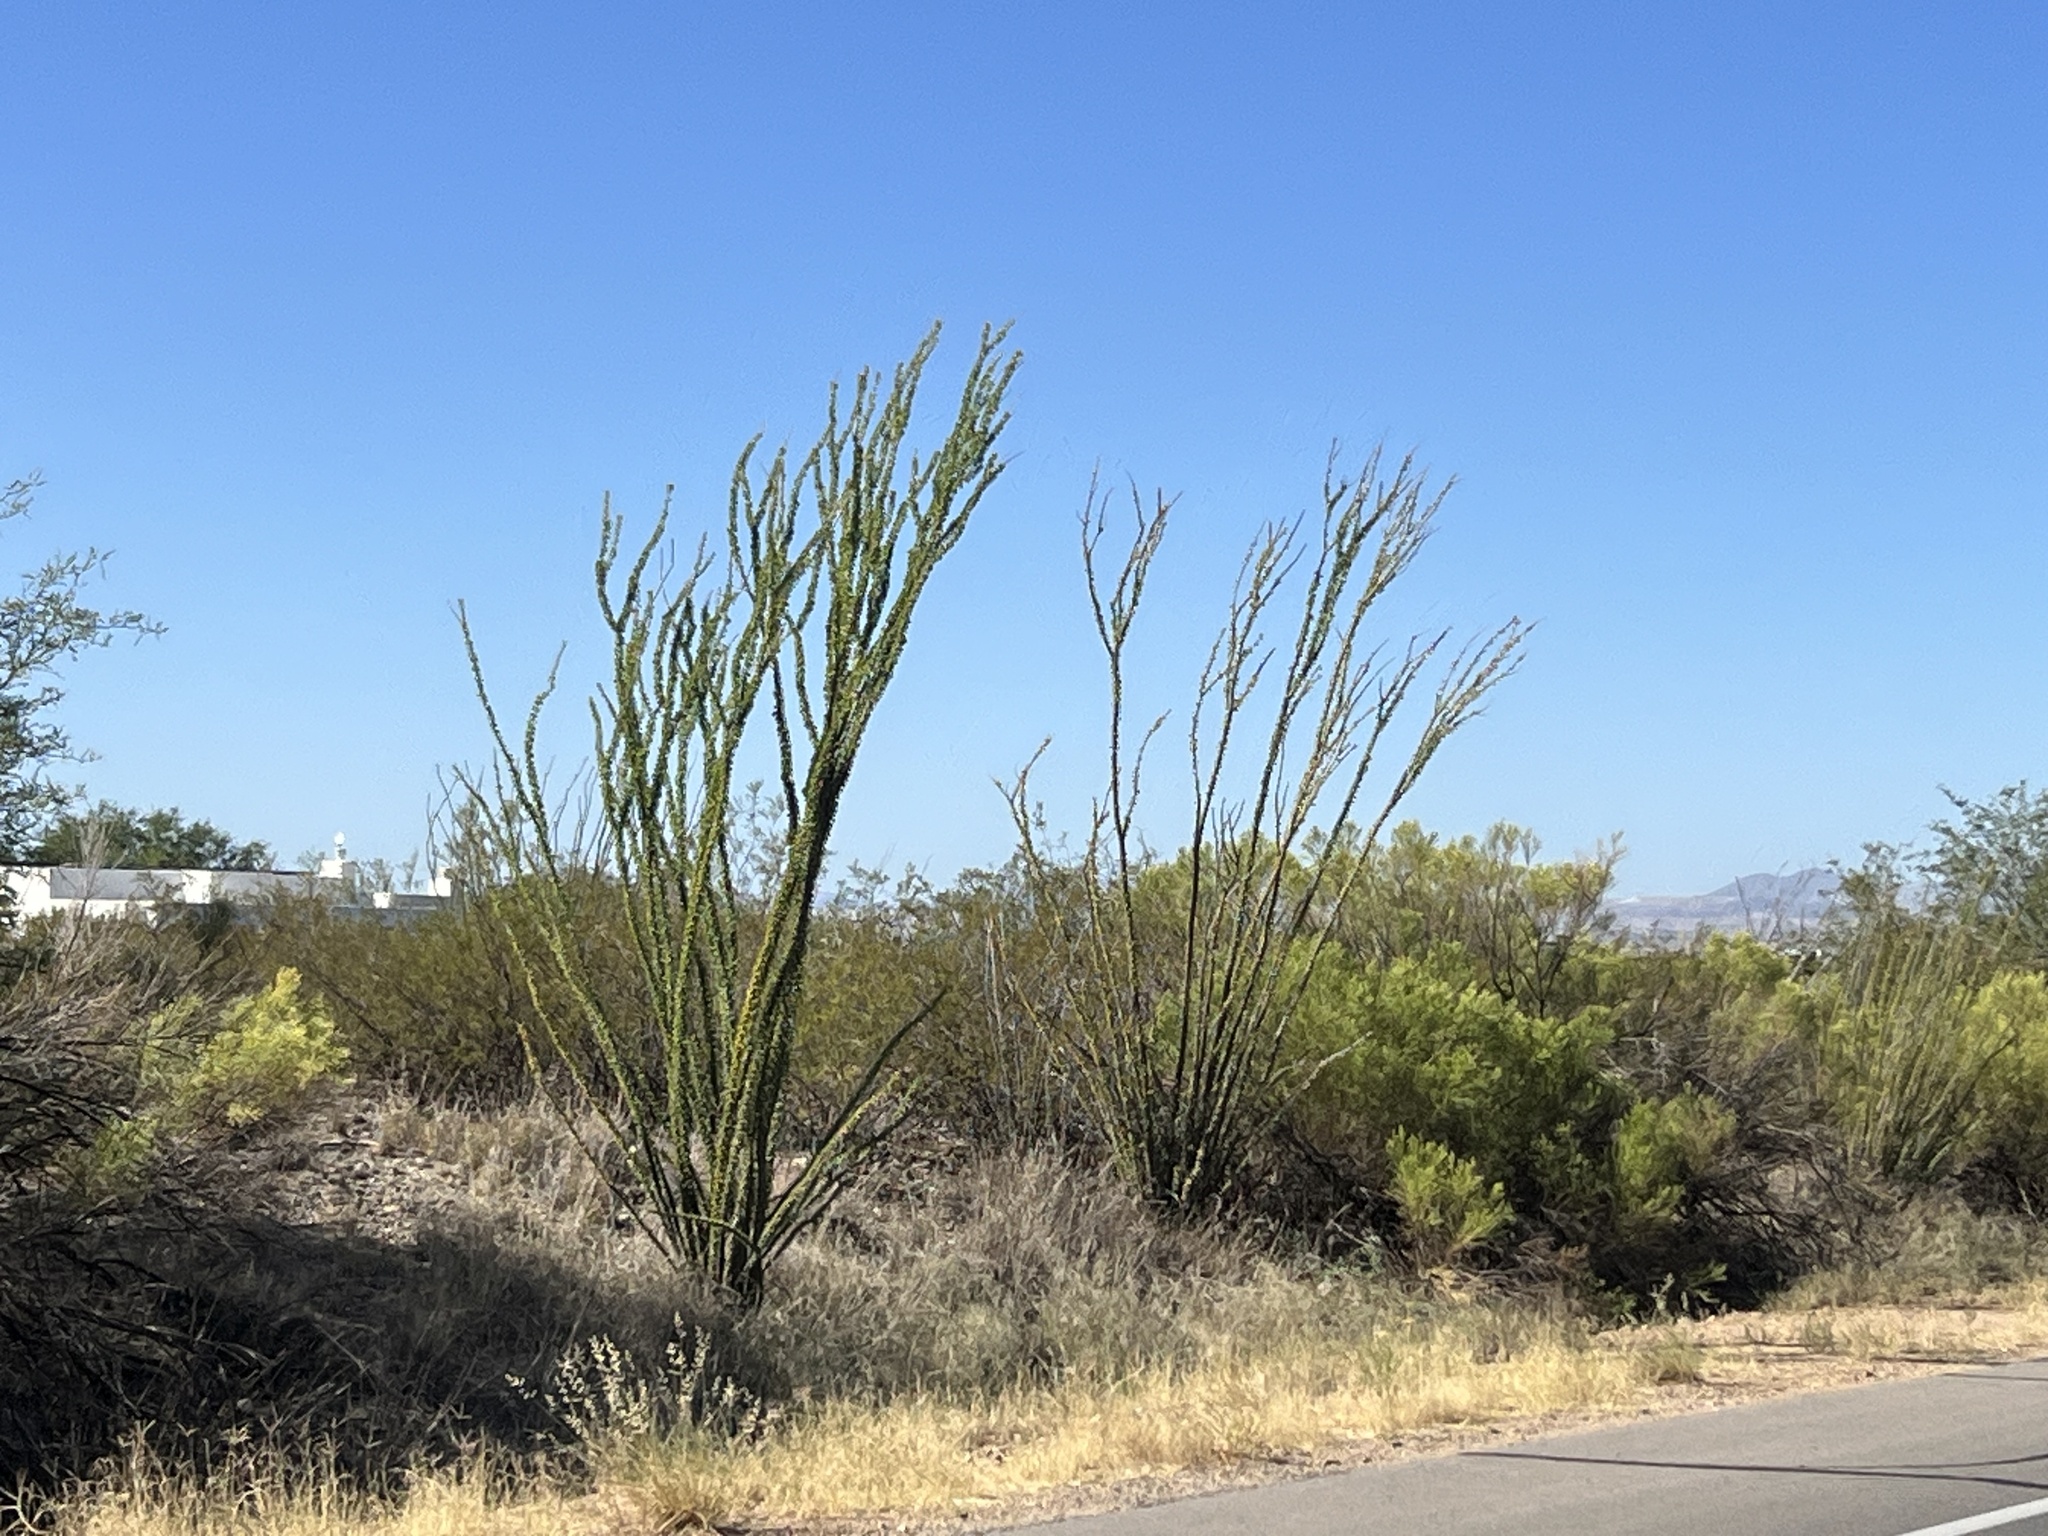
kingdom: Plantae
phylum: Tracheophyta
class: Magnoliopsida
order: Ericales
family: Fouquieriaceae
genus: Fouquieria
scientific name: Fouquieria splendens
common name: Vine-cactus
